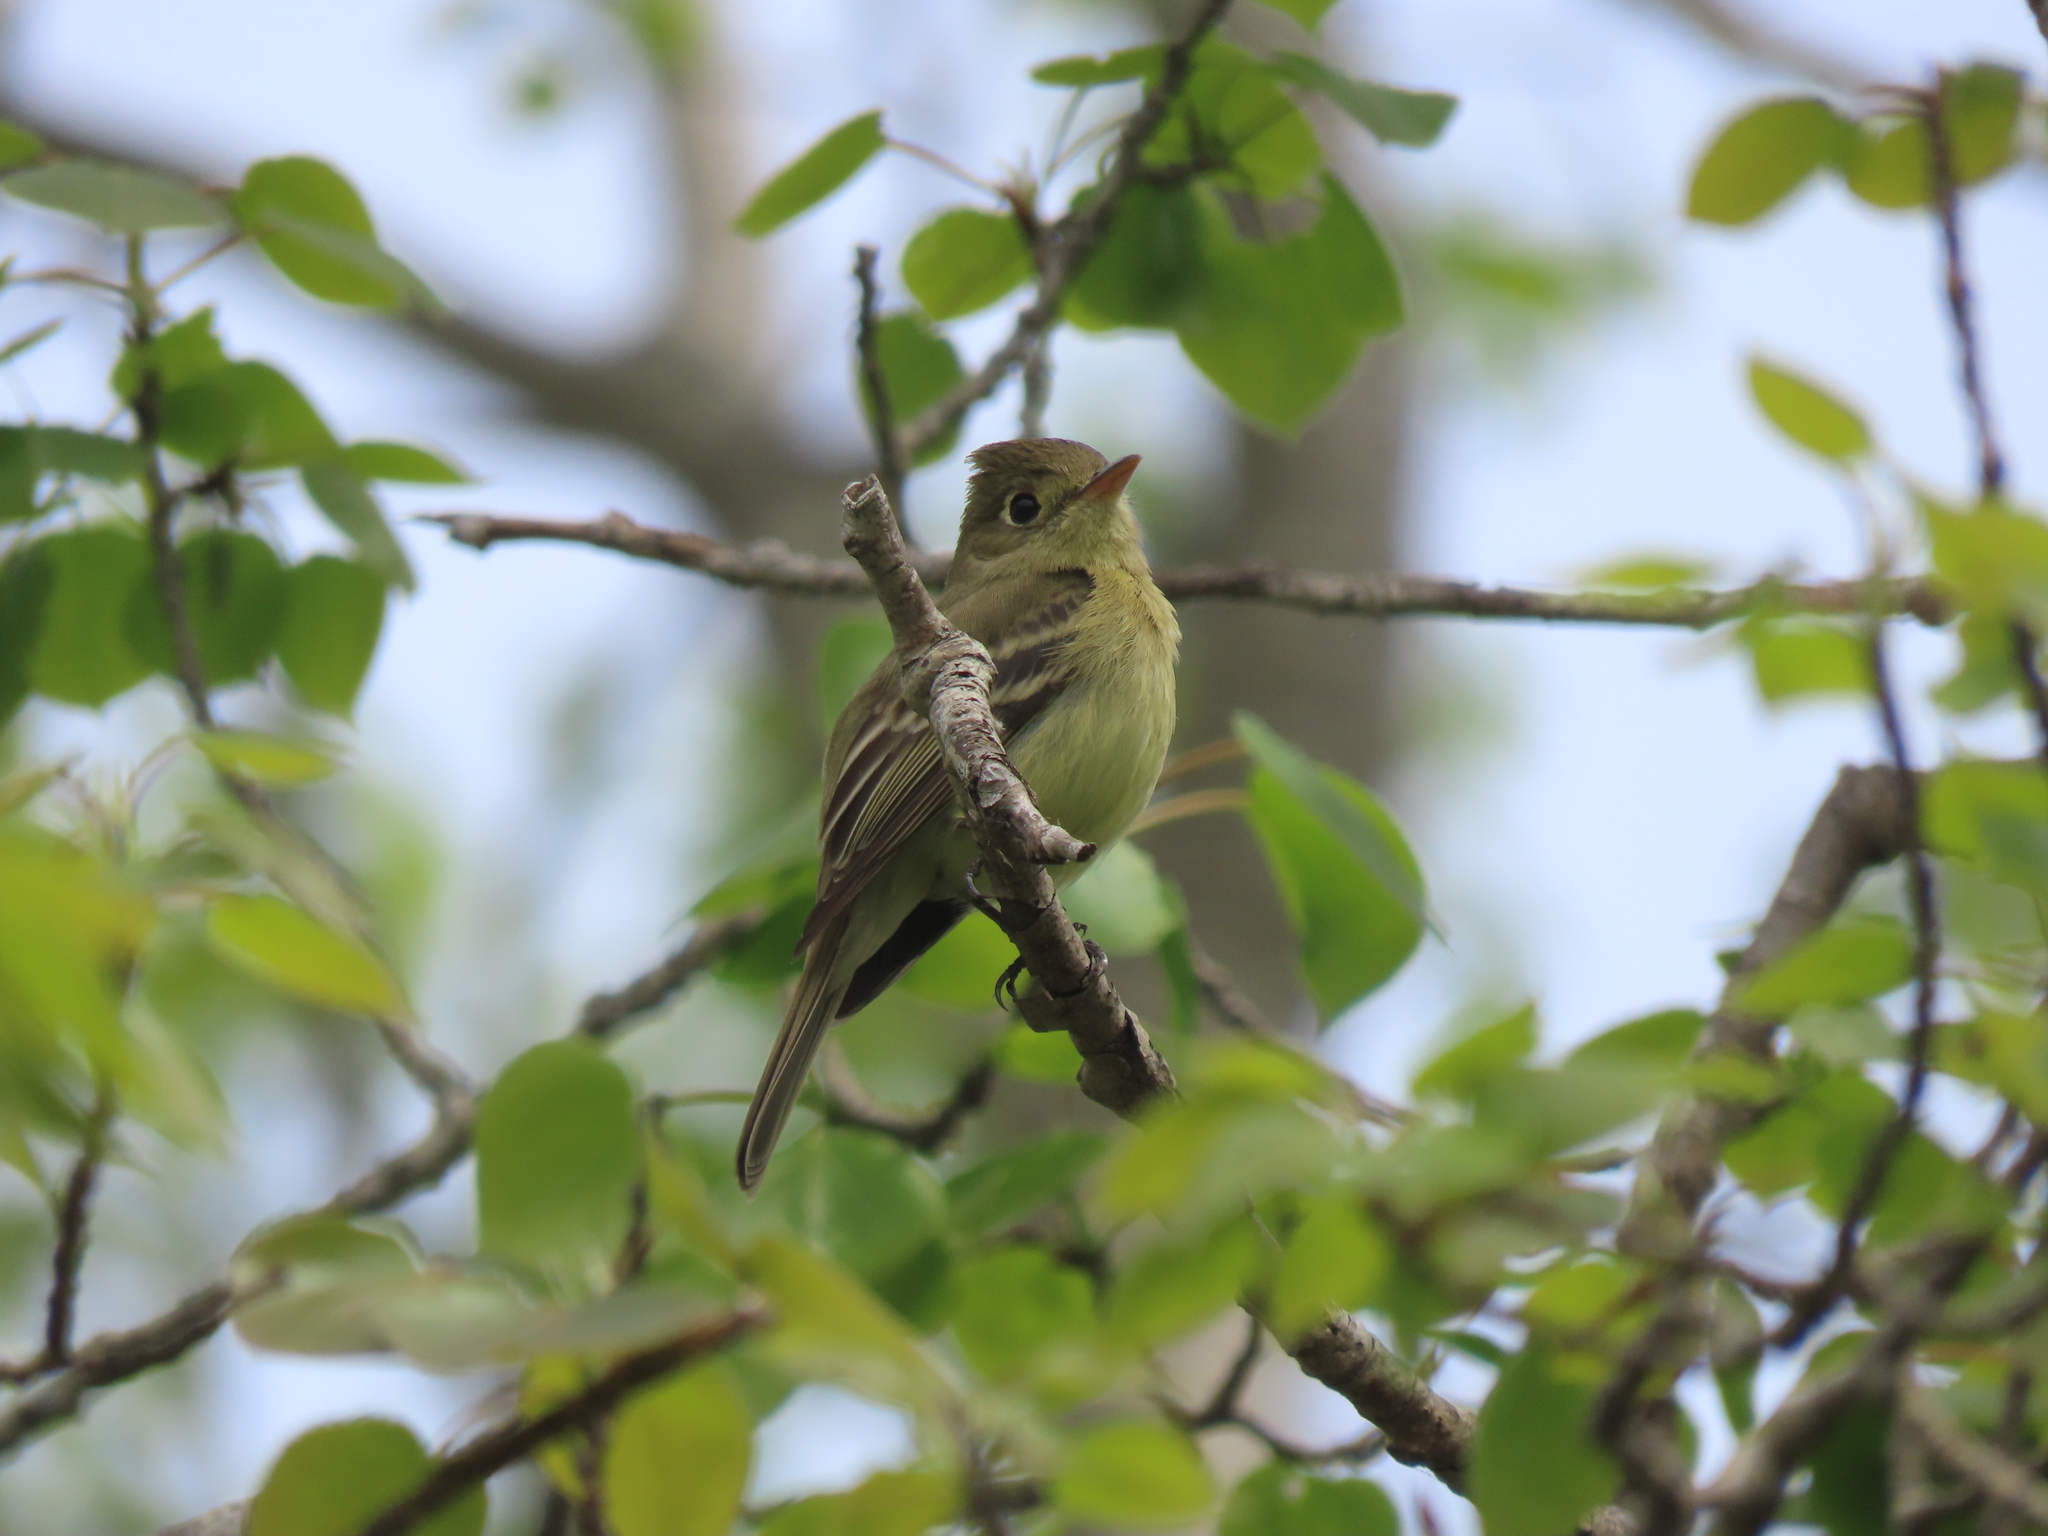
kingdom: Animalia
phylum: Chordata
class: Aves
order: Passeriformes
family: Tyrannidae
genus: Empidonax
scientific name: Empidonax difficilis
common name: Pacific-slope flycatcher
